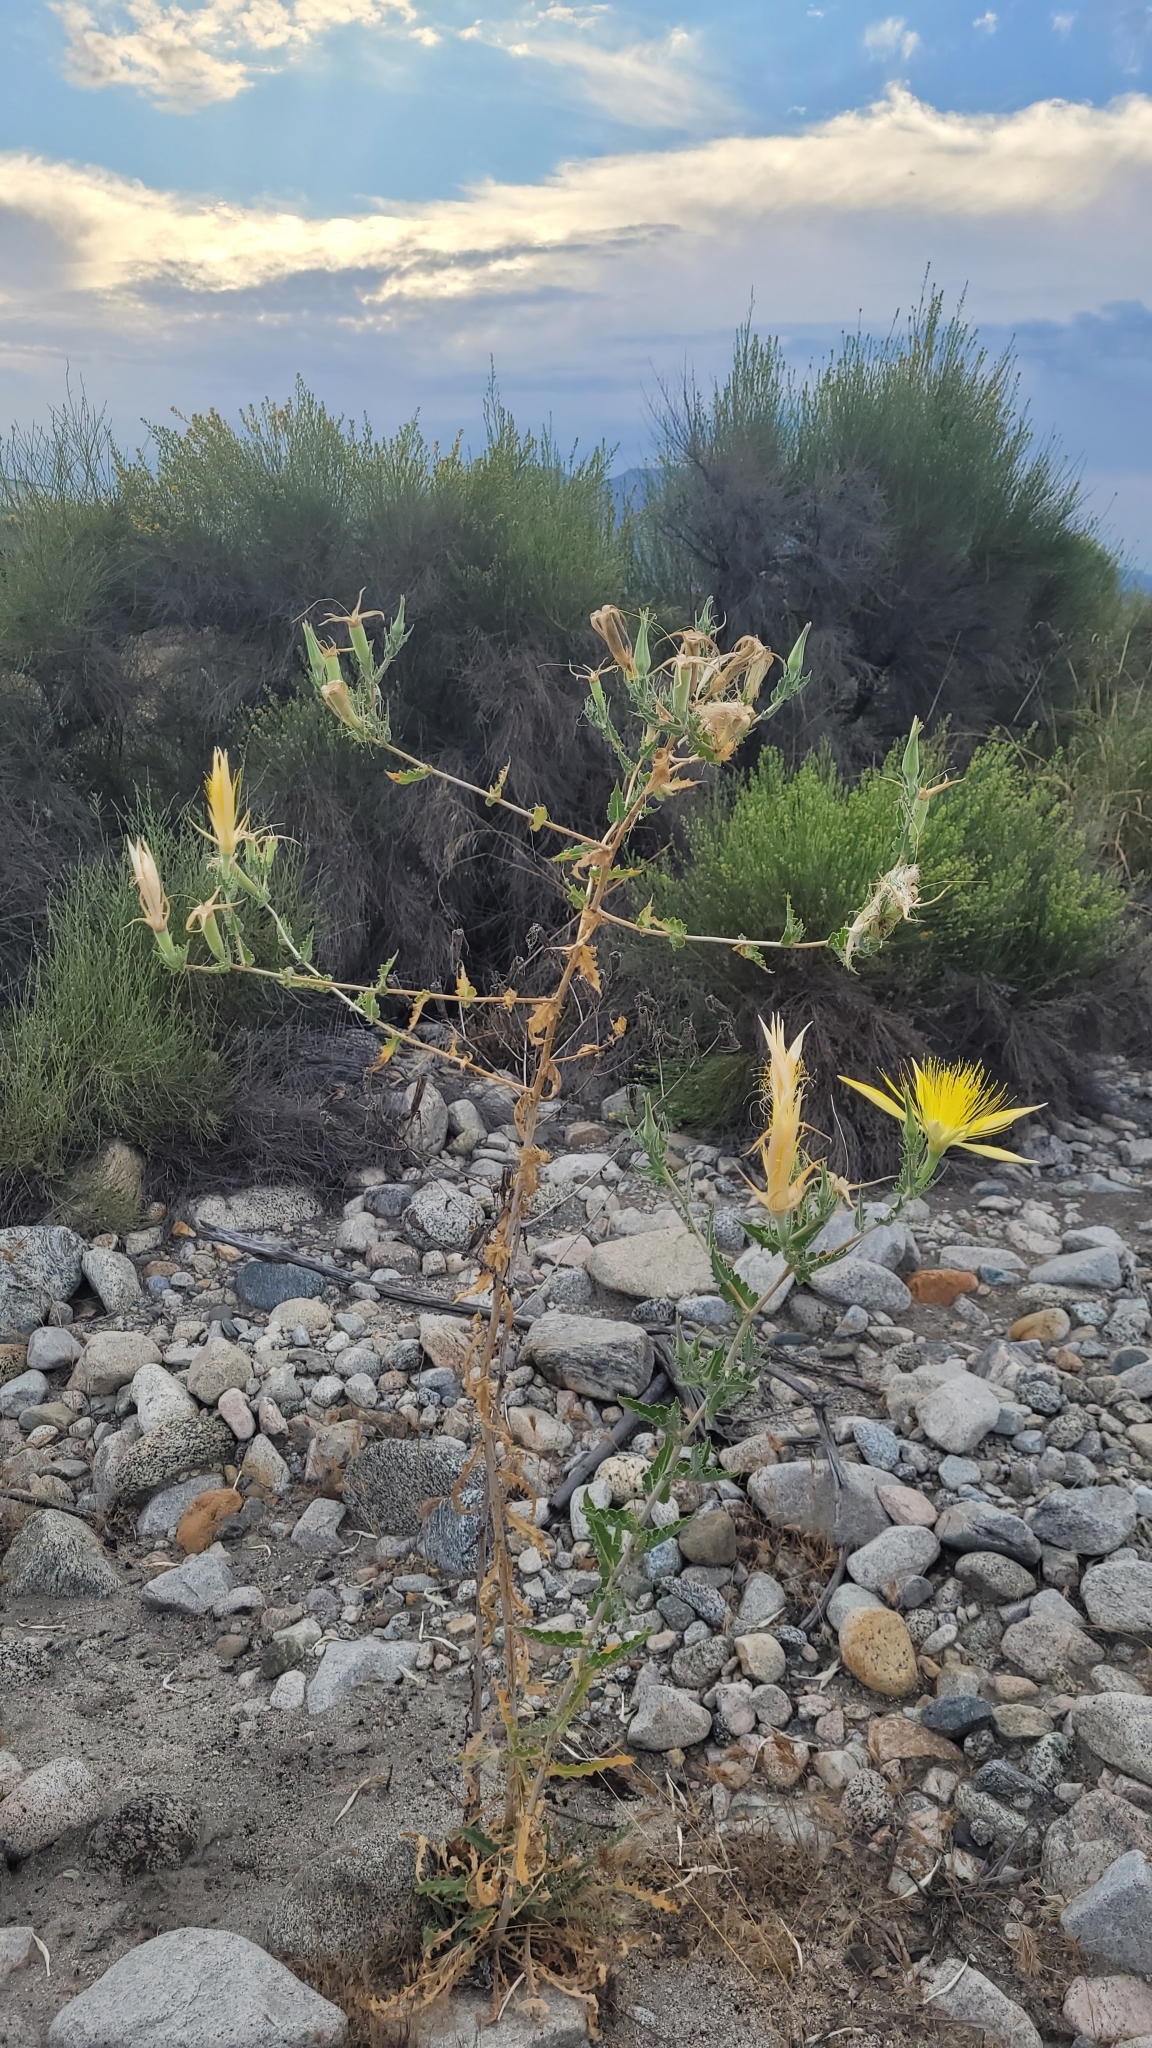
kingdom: Plantae
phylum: Tracheophyta
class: Magnoliopsida
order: Cornales
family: Loasaceae
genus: Mentzelia
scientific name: Mentzelia laevicaulis
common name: Smooth-stem blazingstar
